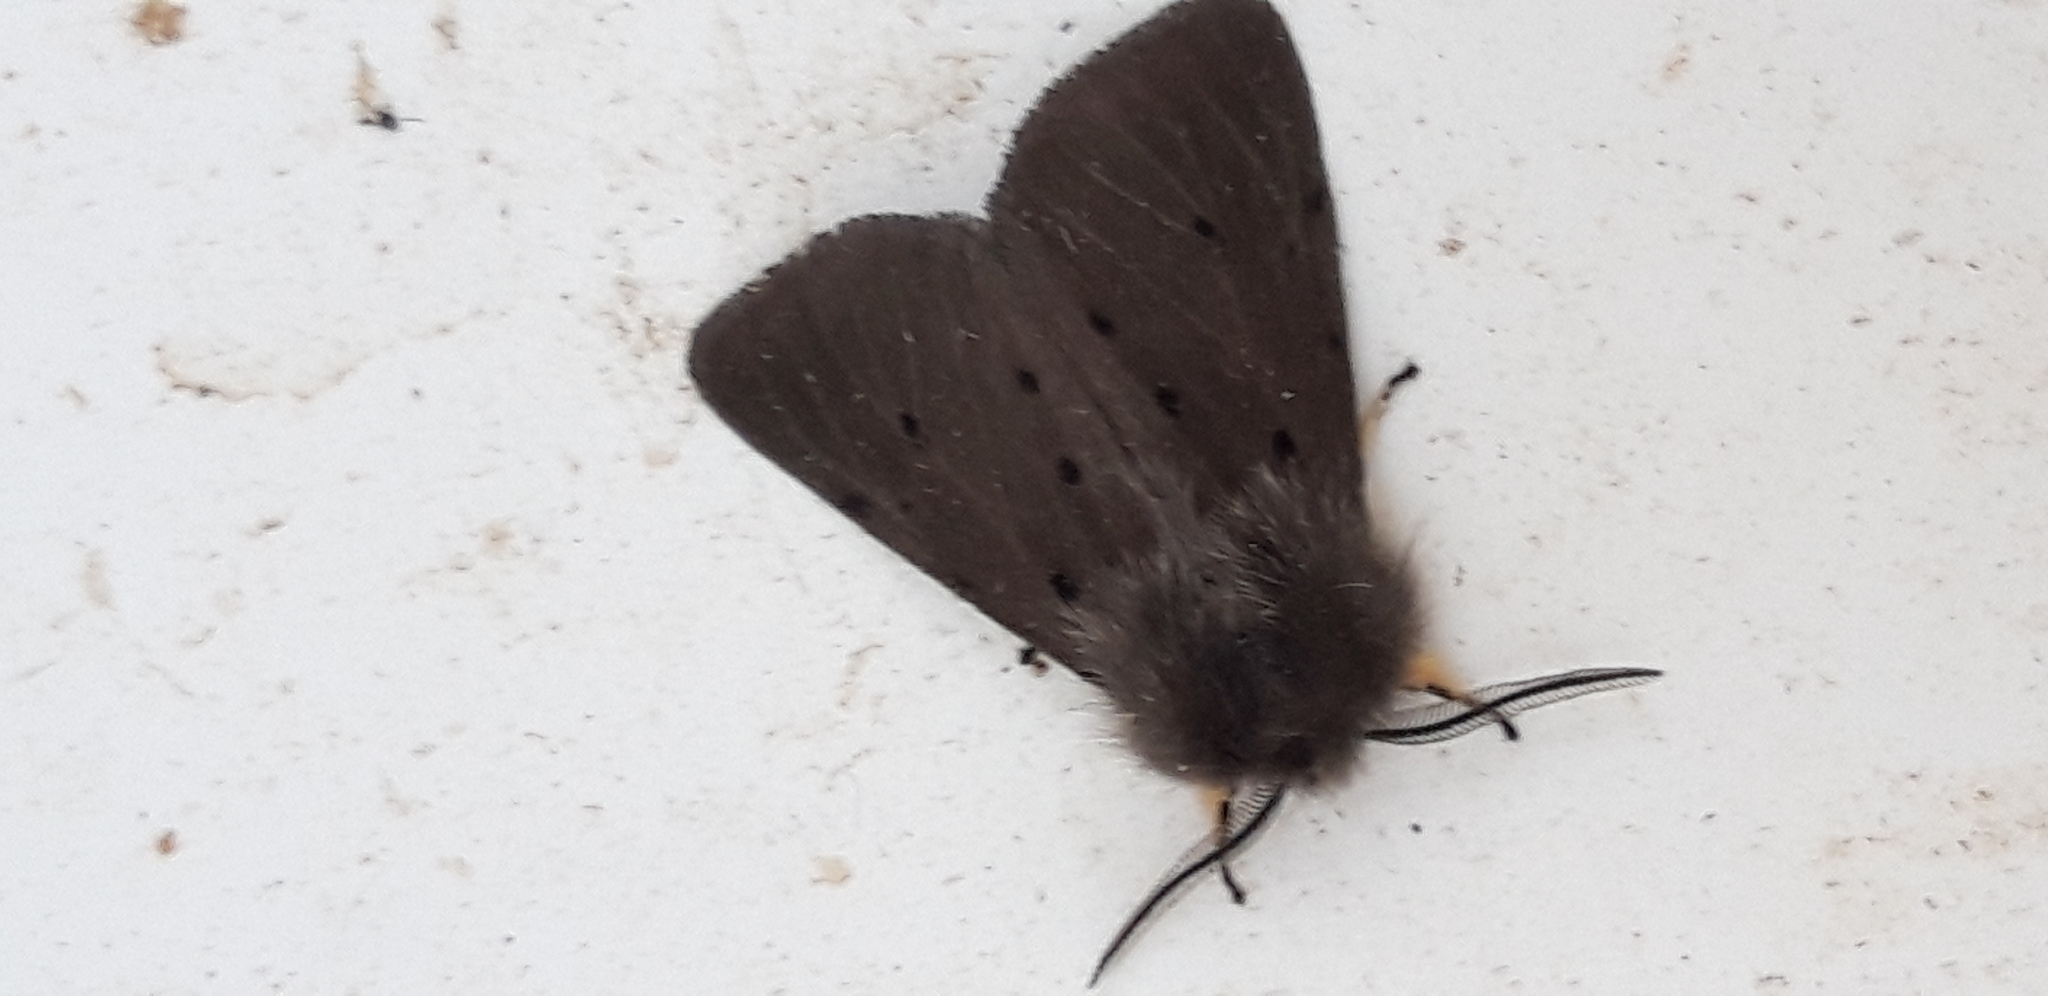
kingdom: Animalia
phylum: Arthropoda
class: Insecta
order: Lepidoptera
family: Erebidae
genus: Diaphora
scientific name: Diaphora mendica
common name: Muslin moth
